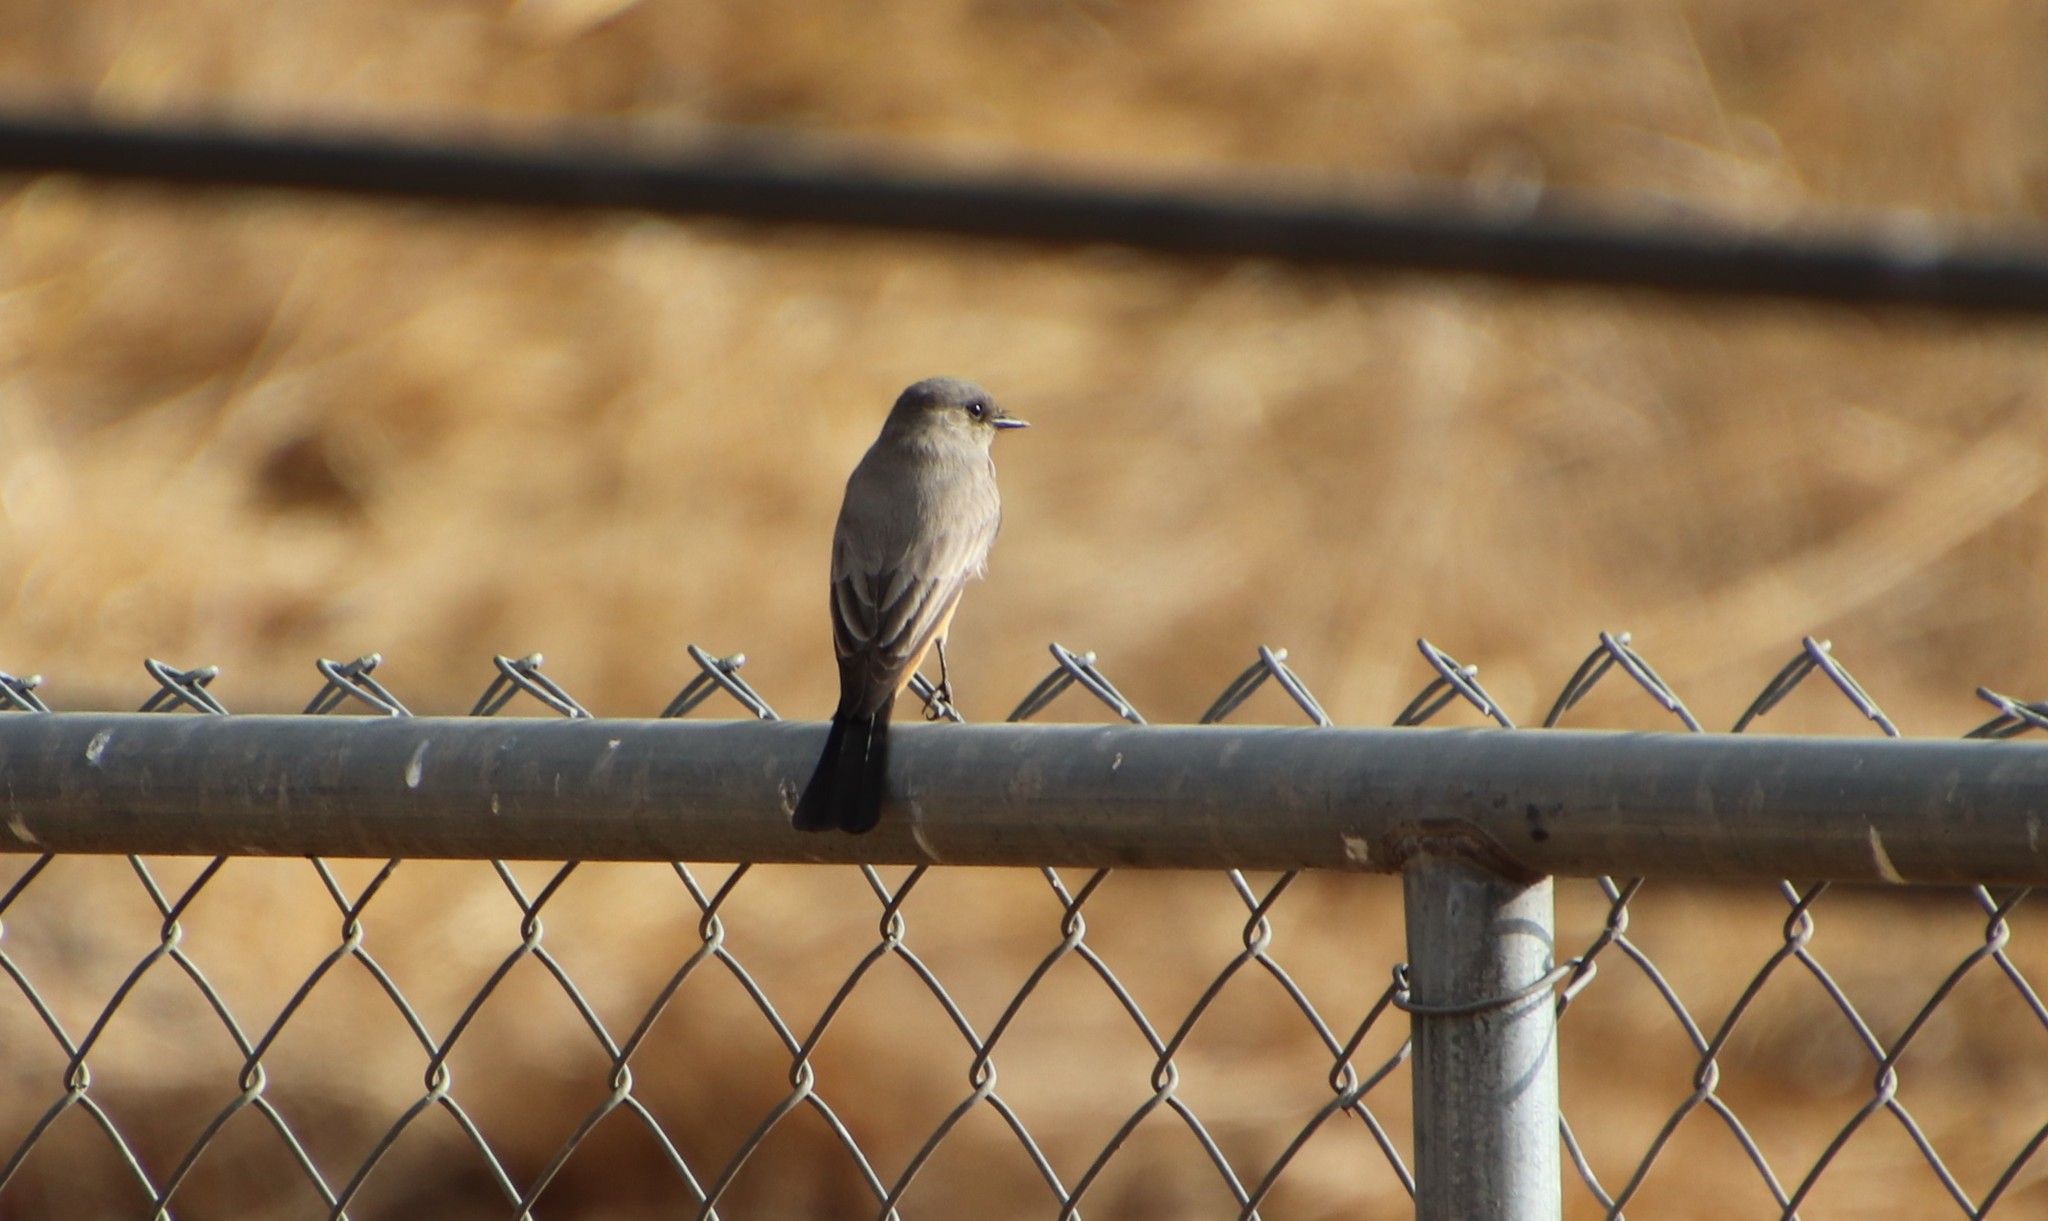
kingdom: Animalia
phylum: Chordata
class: Aves
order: Passeriformes
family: Tyrannidae
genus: Sayornis
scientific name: Sayornis saya
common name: Say's phoebe
